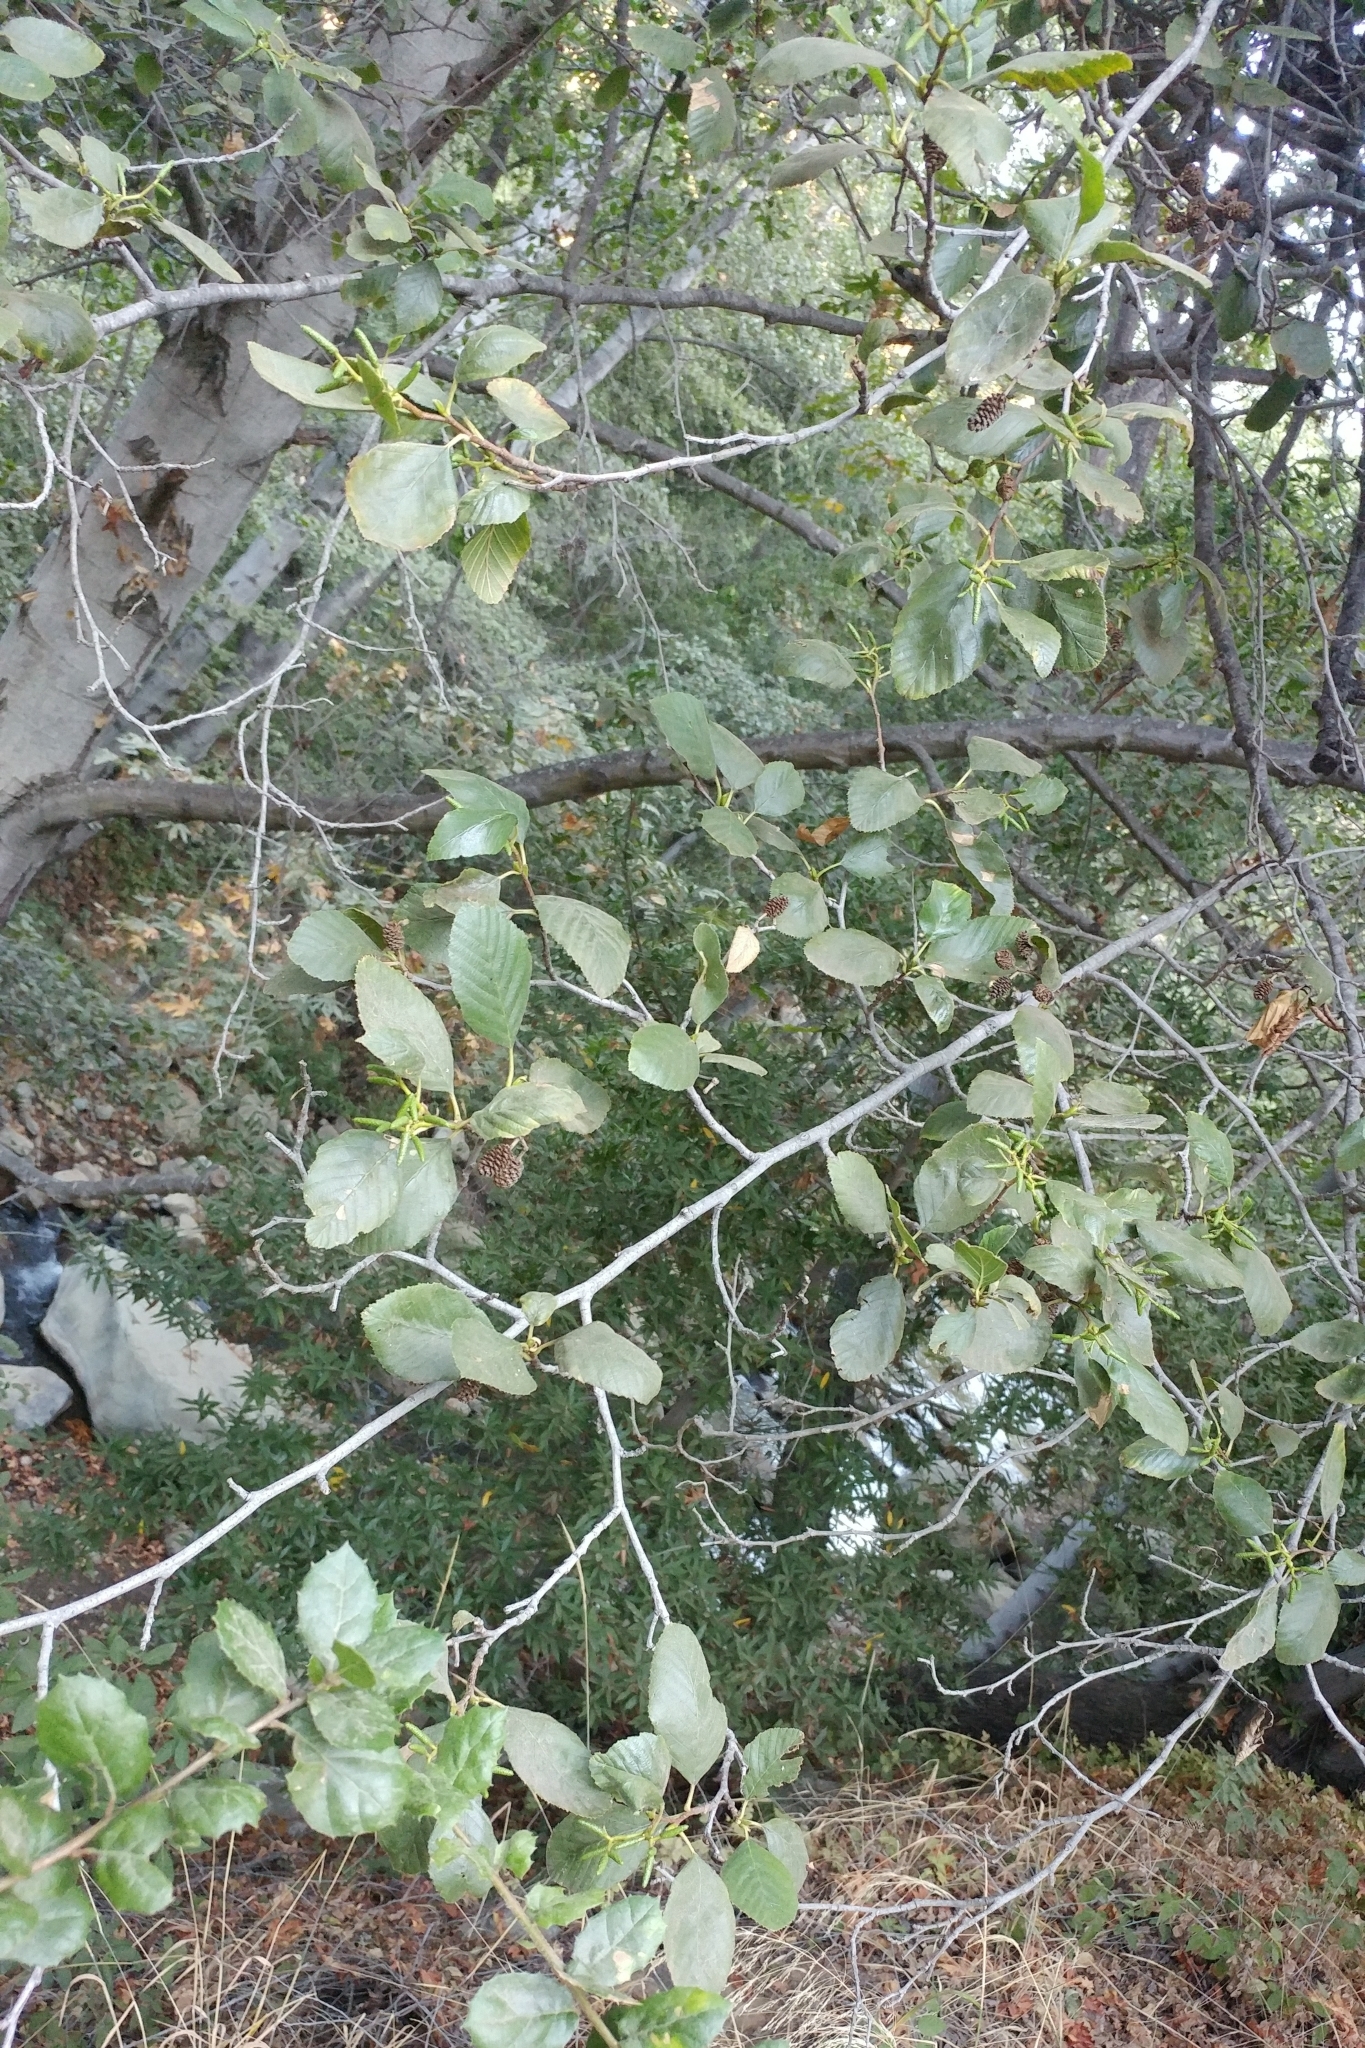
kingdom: Plantae
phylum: Tracheophyta
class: Magnoliopsida
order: Fagales
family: Betulaceae
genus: Alnus
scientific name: Alnus rhombifolia
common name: California alder
